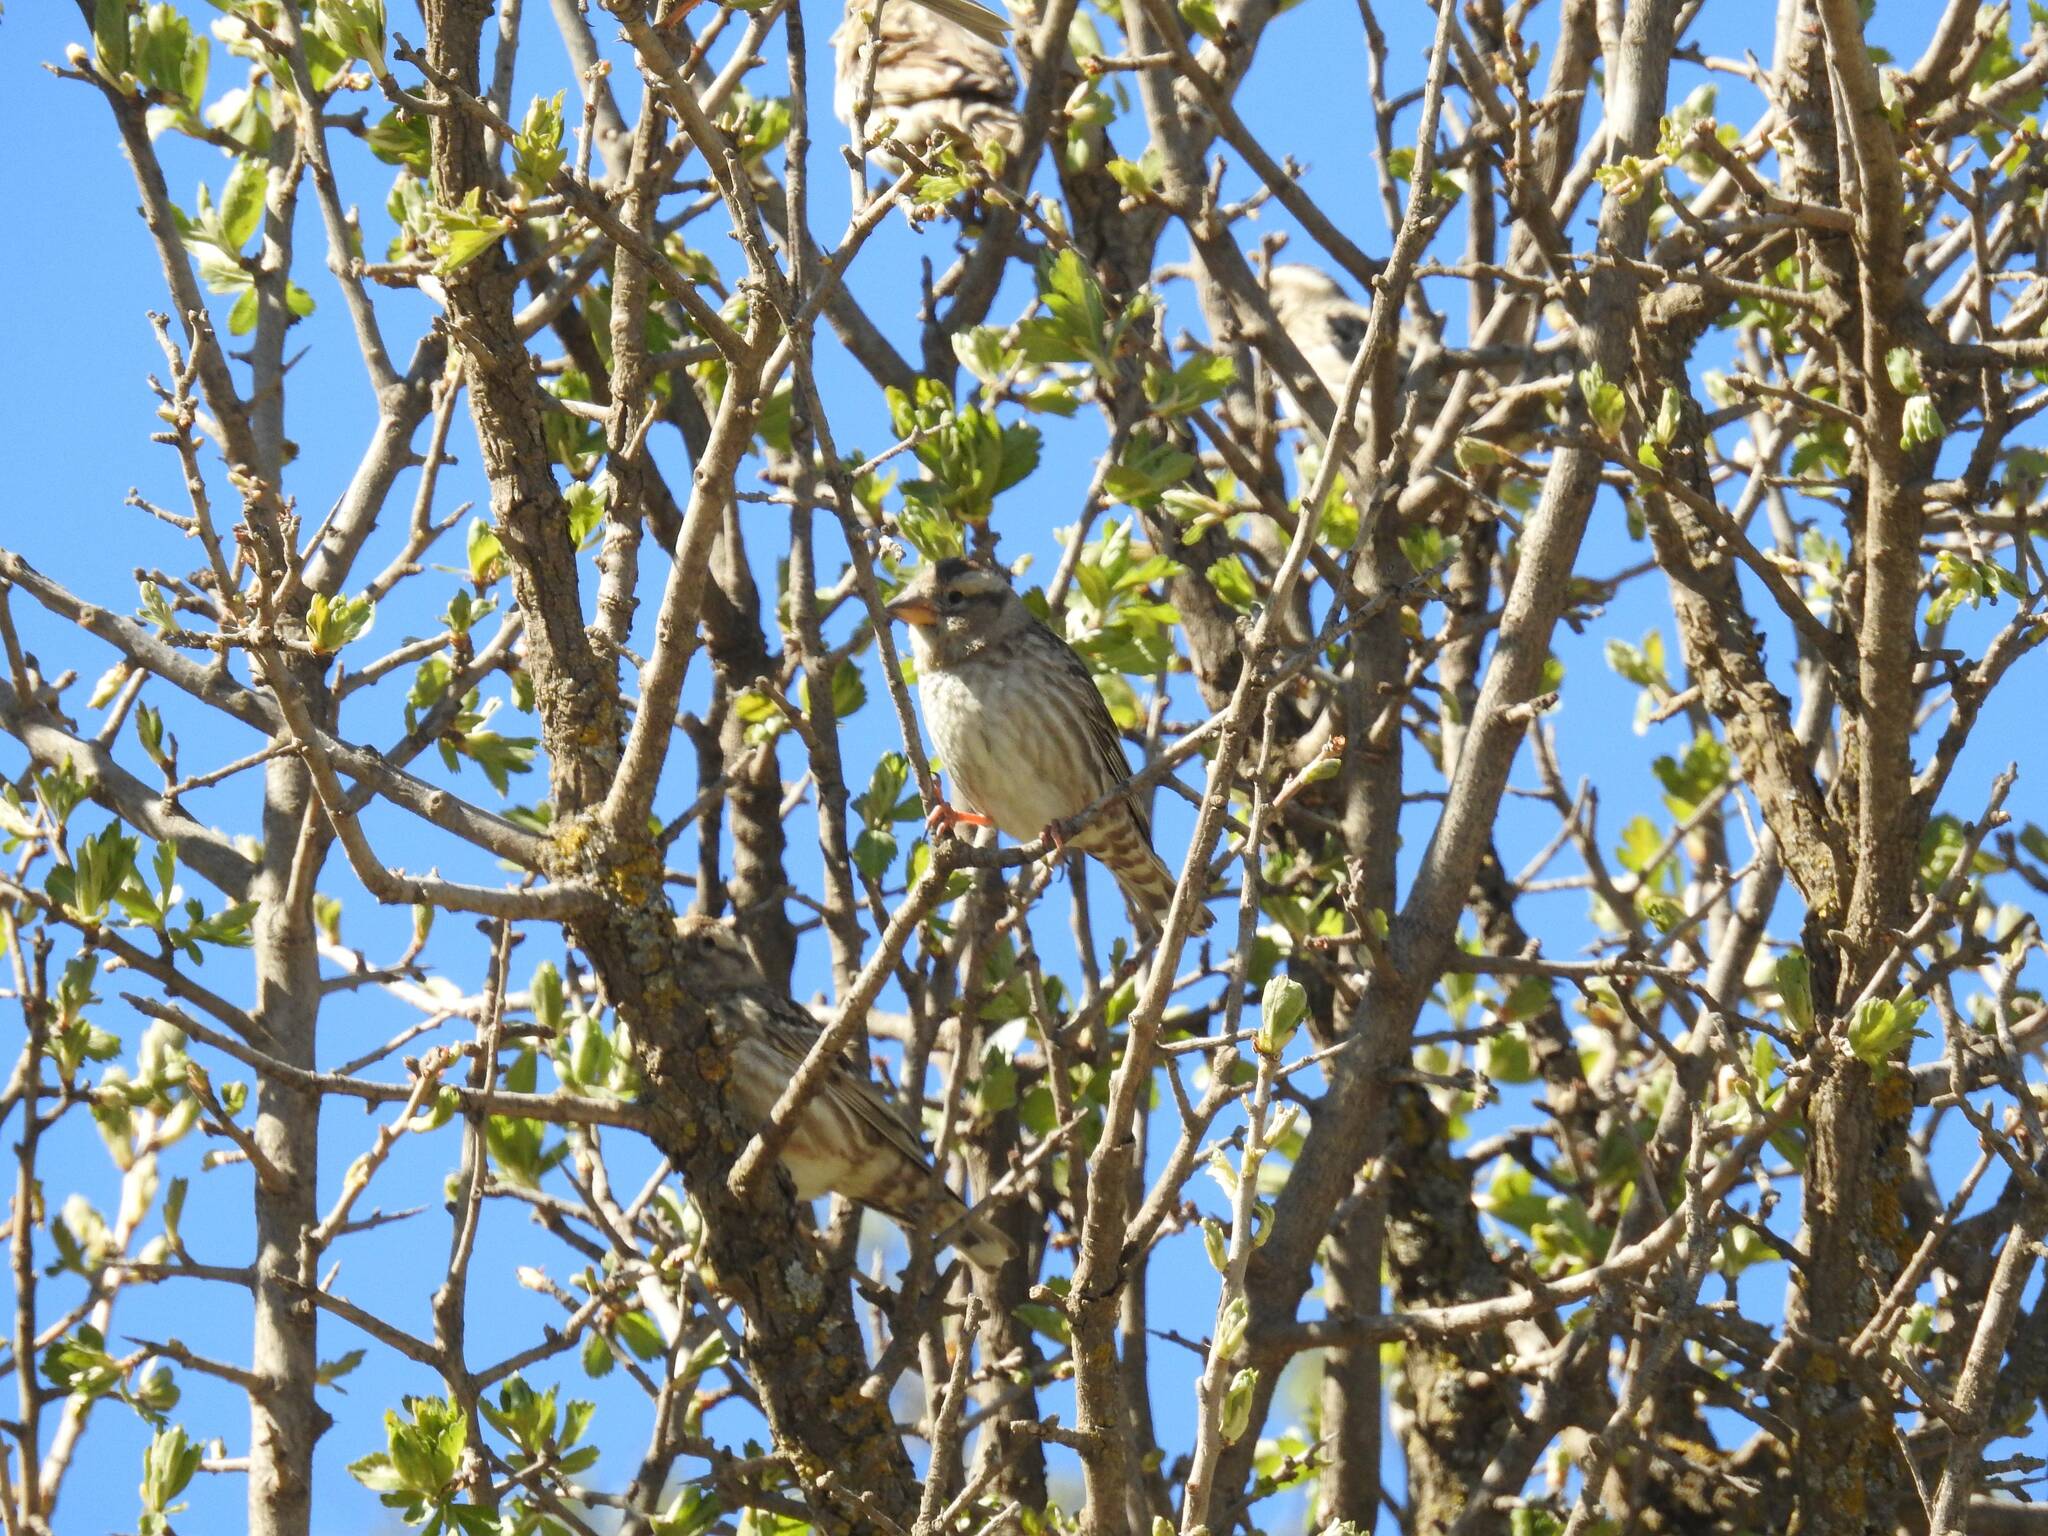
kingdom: Animalia
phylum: Chordata
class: Aves
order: Passeriformes
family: Passeridae
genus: Petronia
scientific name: Petronia petronia
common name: Rock sparrow
